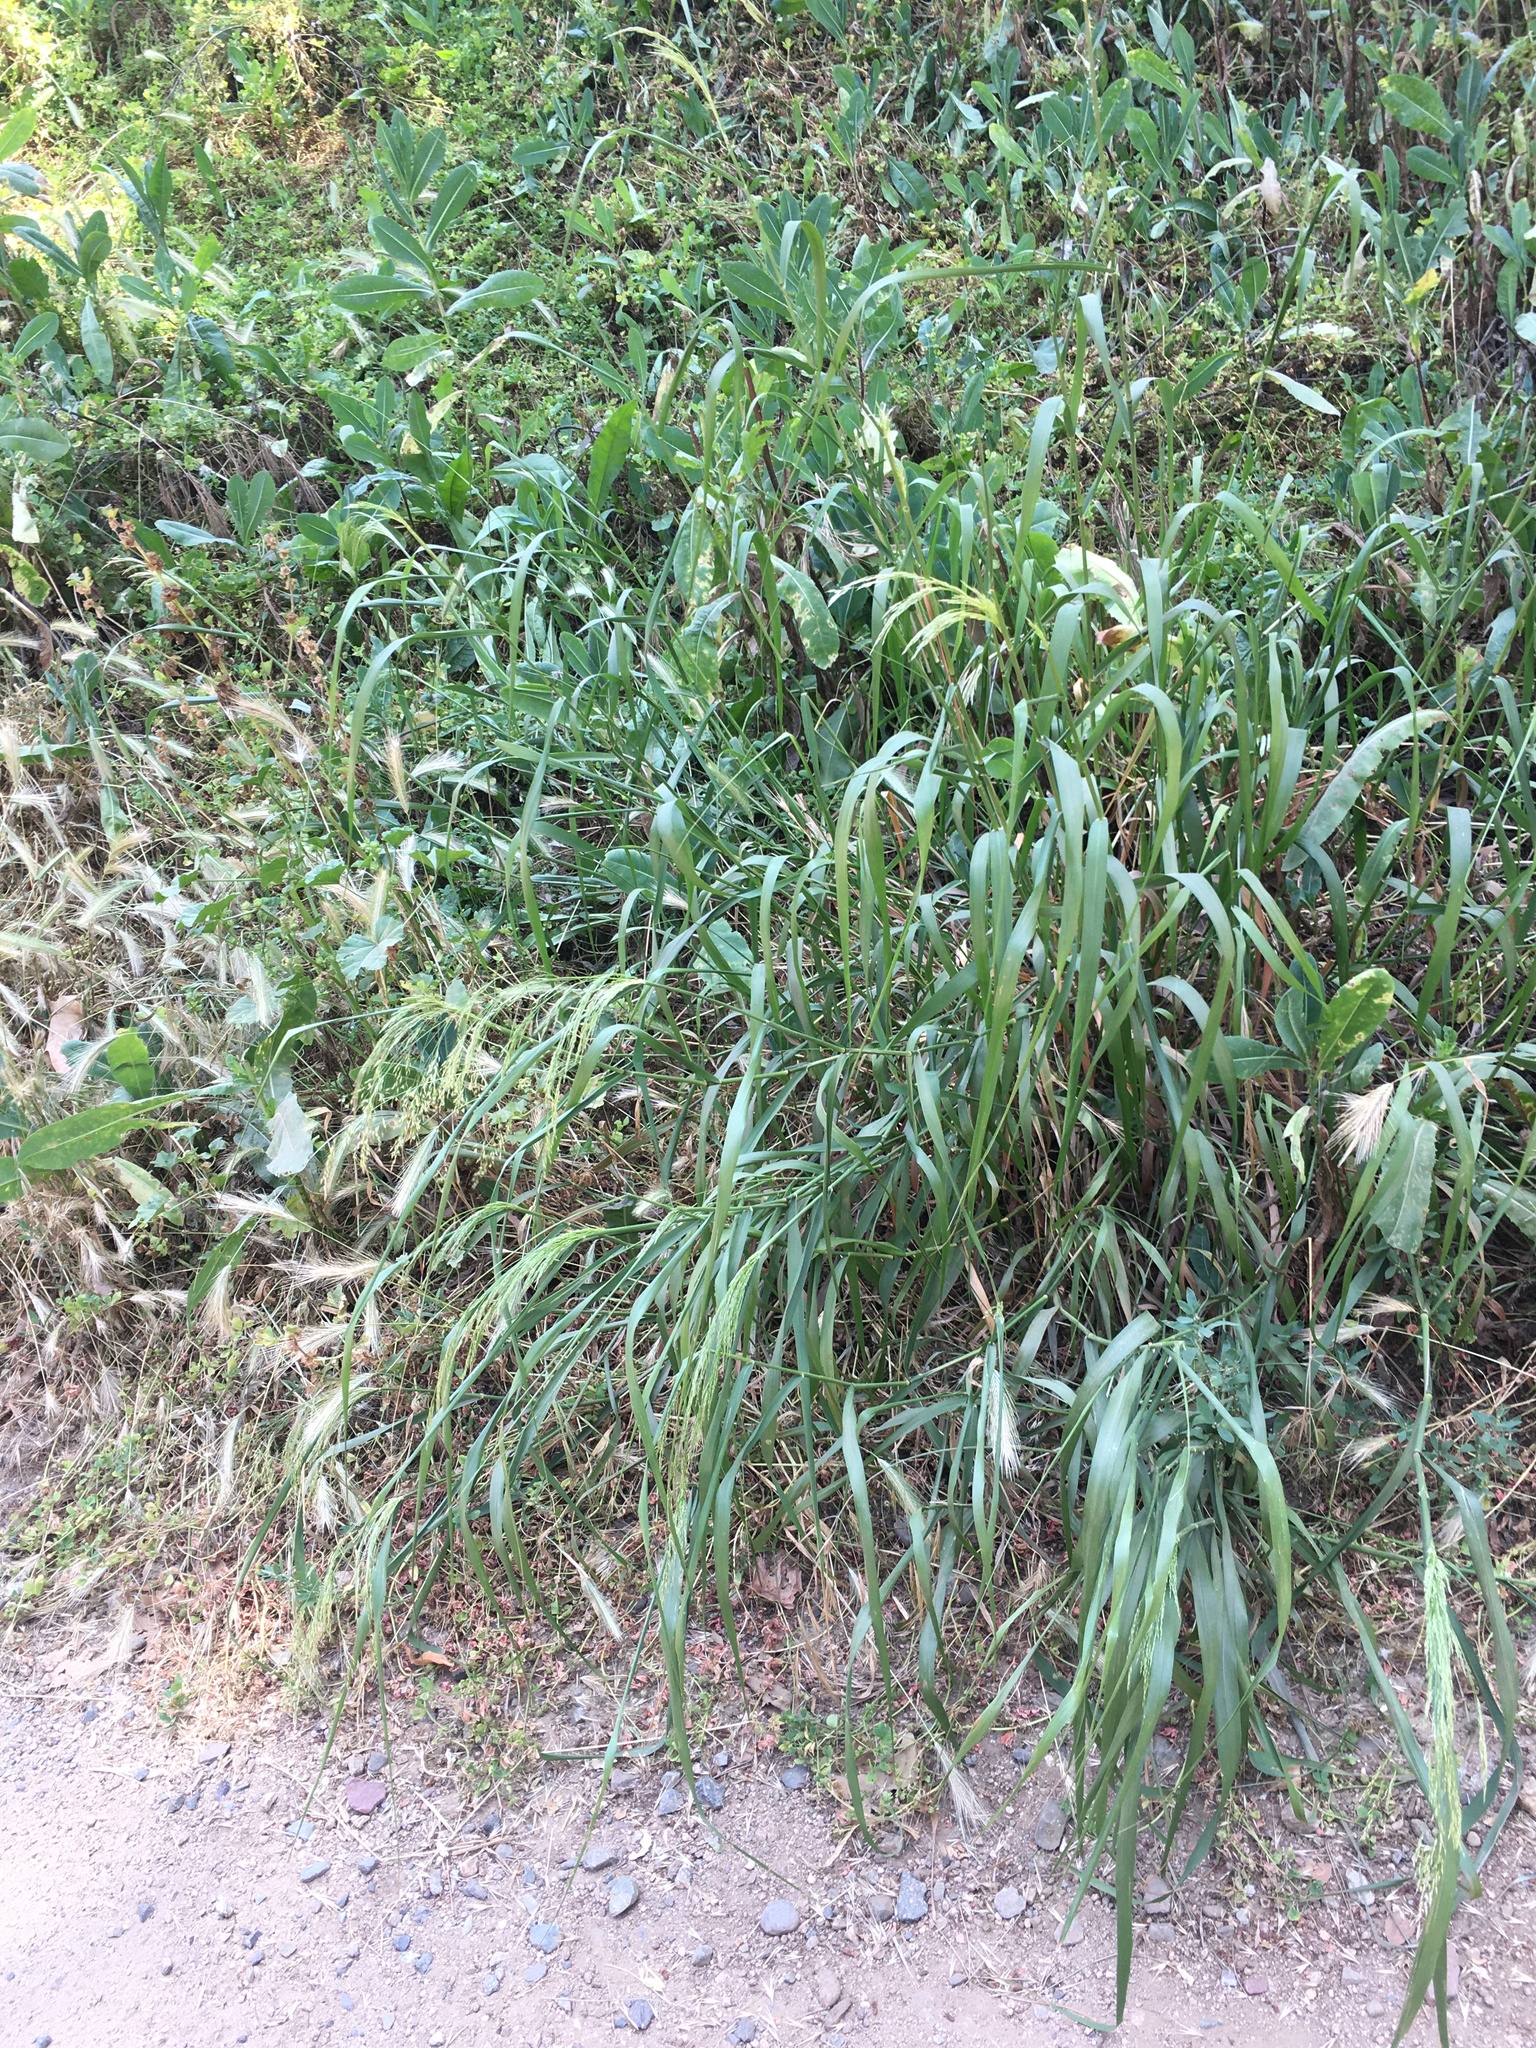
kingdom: Plantae
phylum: Tracheophyta
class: Liliopsida
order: Poales
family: Poaceae
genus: Oloptum
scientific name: Oloptum miliaceum
